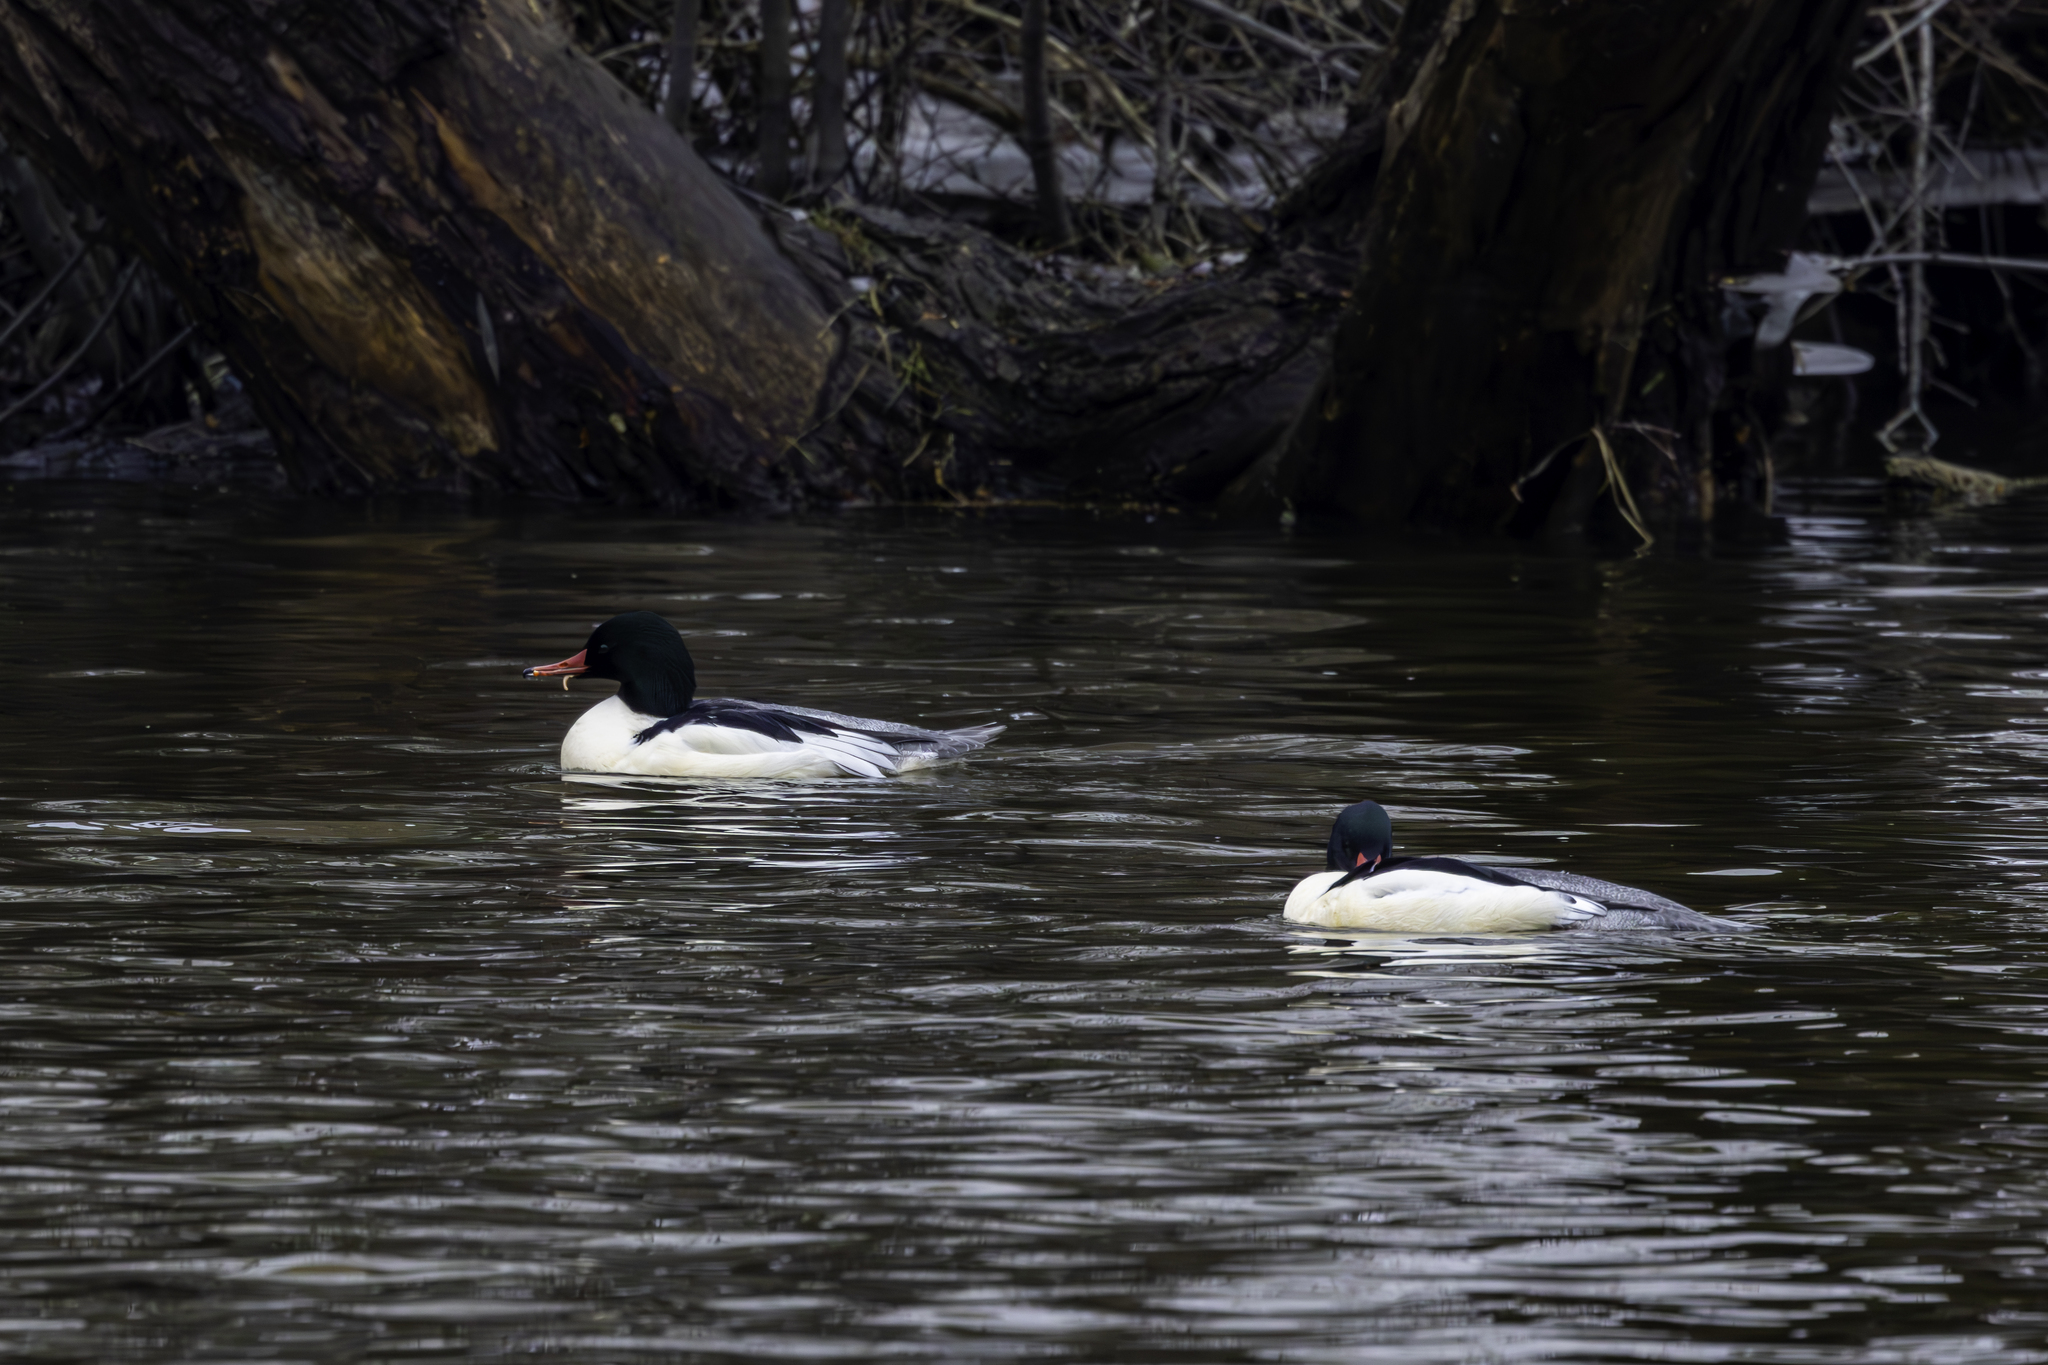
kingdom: Animalia
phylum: Chordata
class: Aves
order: Anseriformes
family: Anatidae
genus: Mergus
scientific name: Mergus merganser
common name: Common merganser
